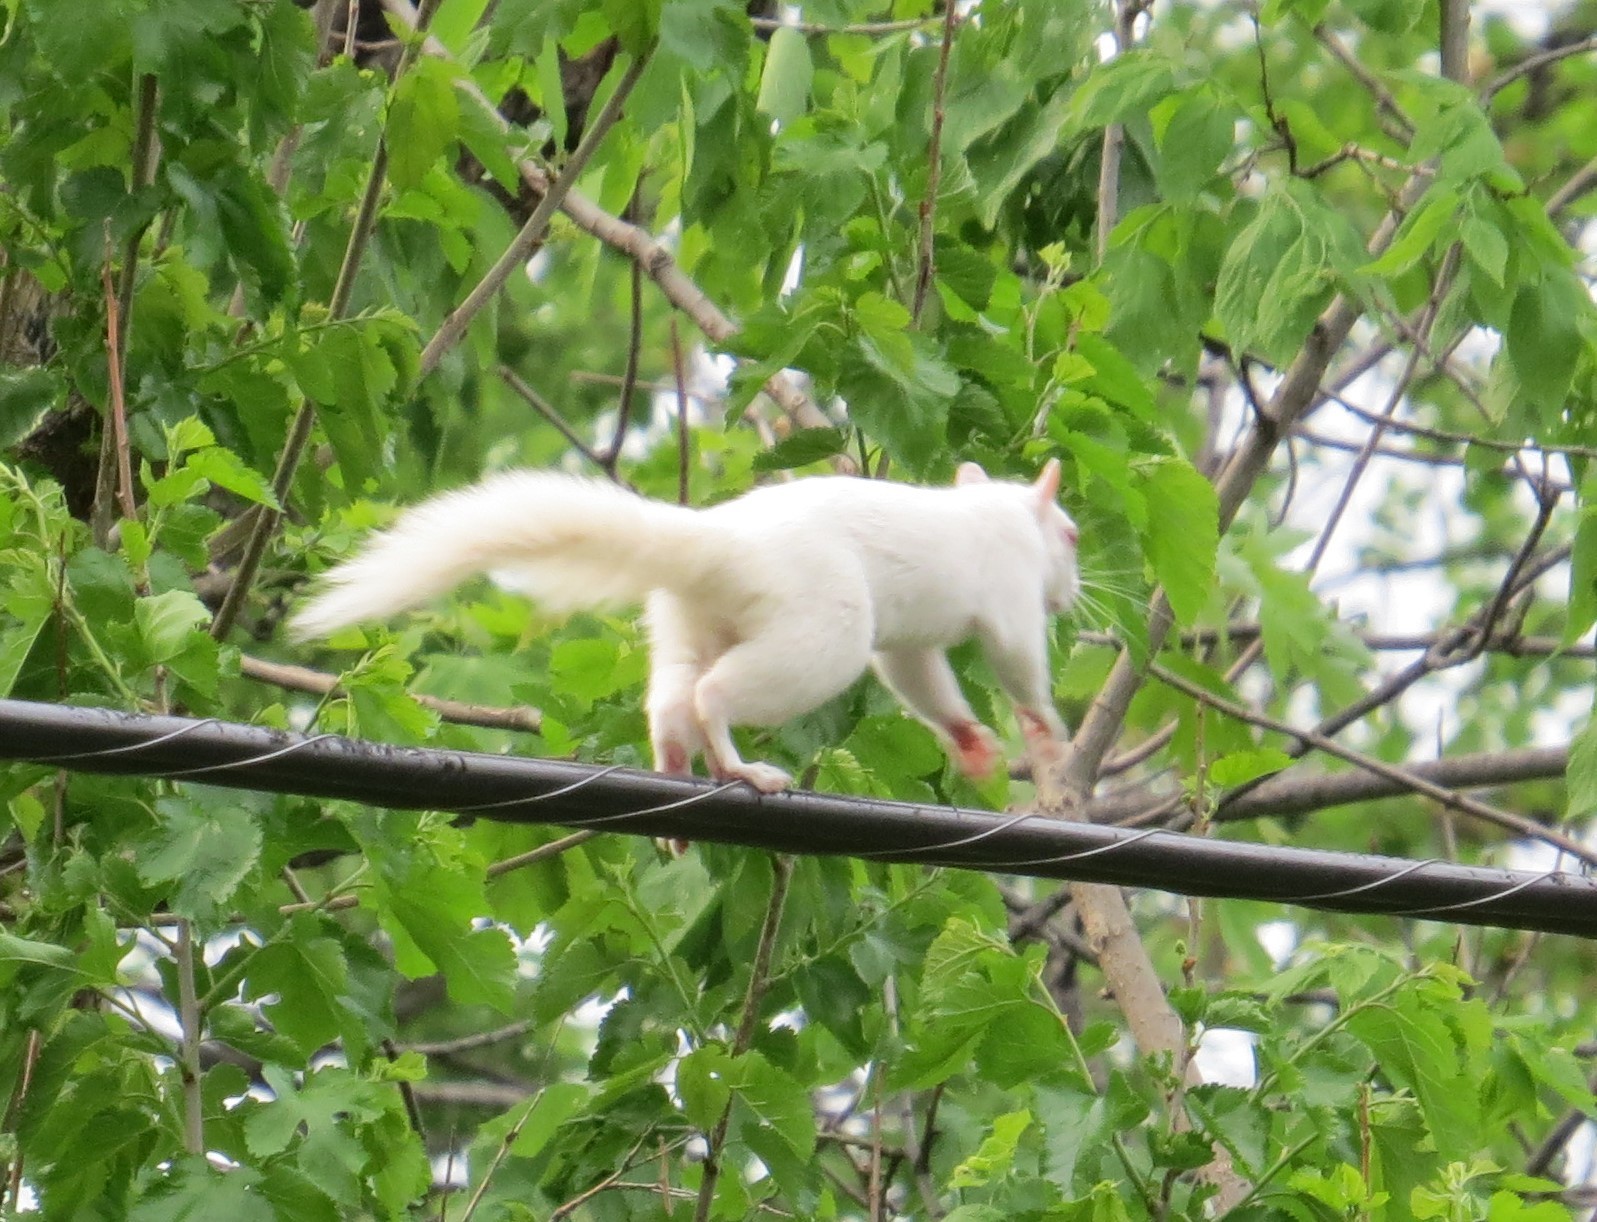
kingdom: Animalia
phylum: Chordata
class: Mammalia
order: Rodentia
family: Sciuridae
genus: Sciurus
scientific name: Sciurus carolinensis
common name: Eastern gray squirrel
